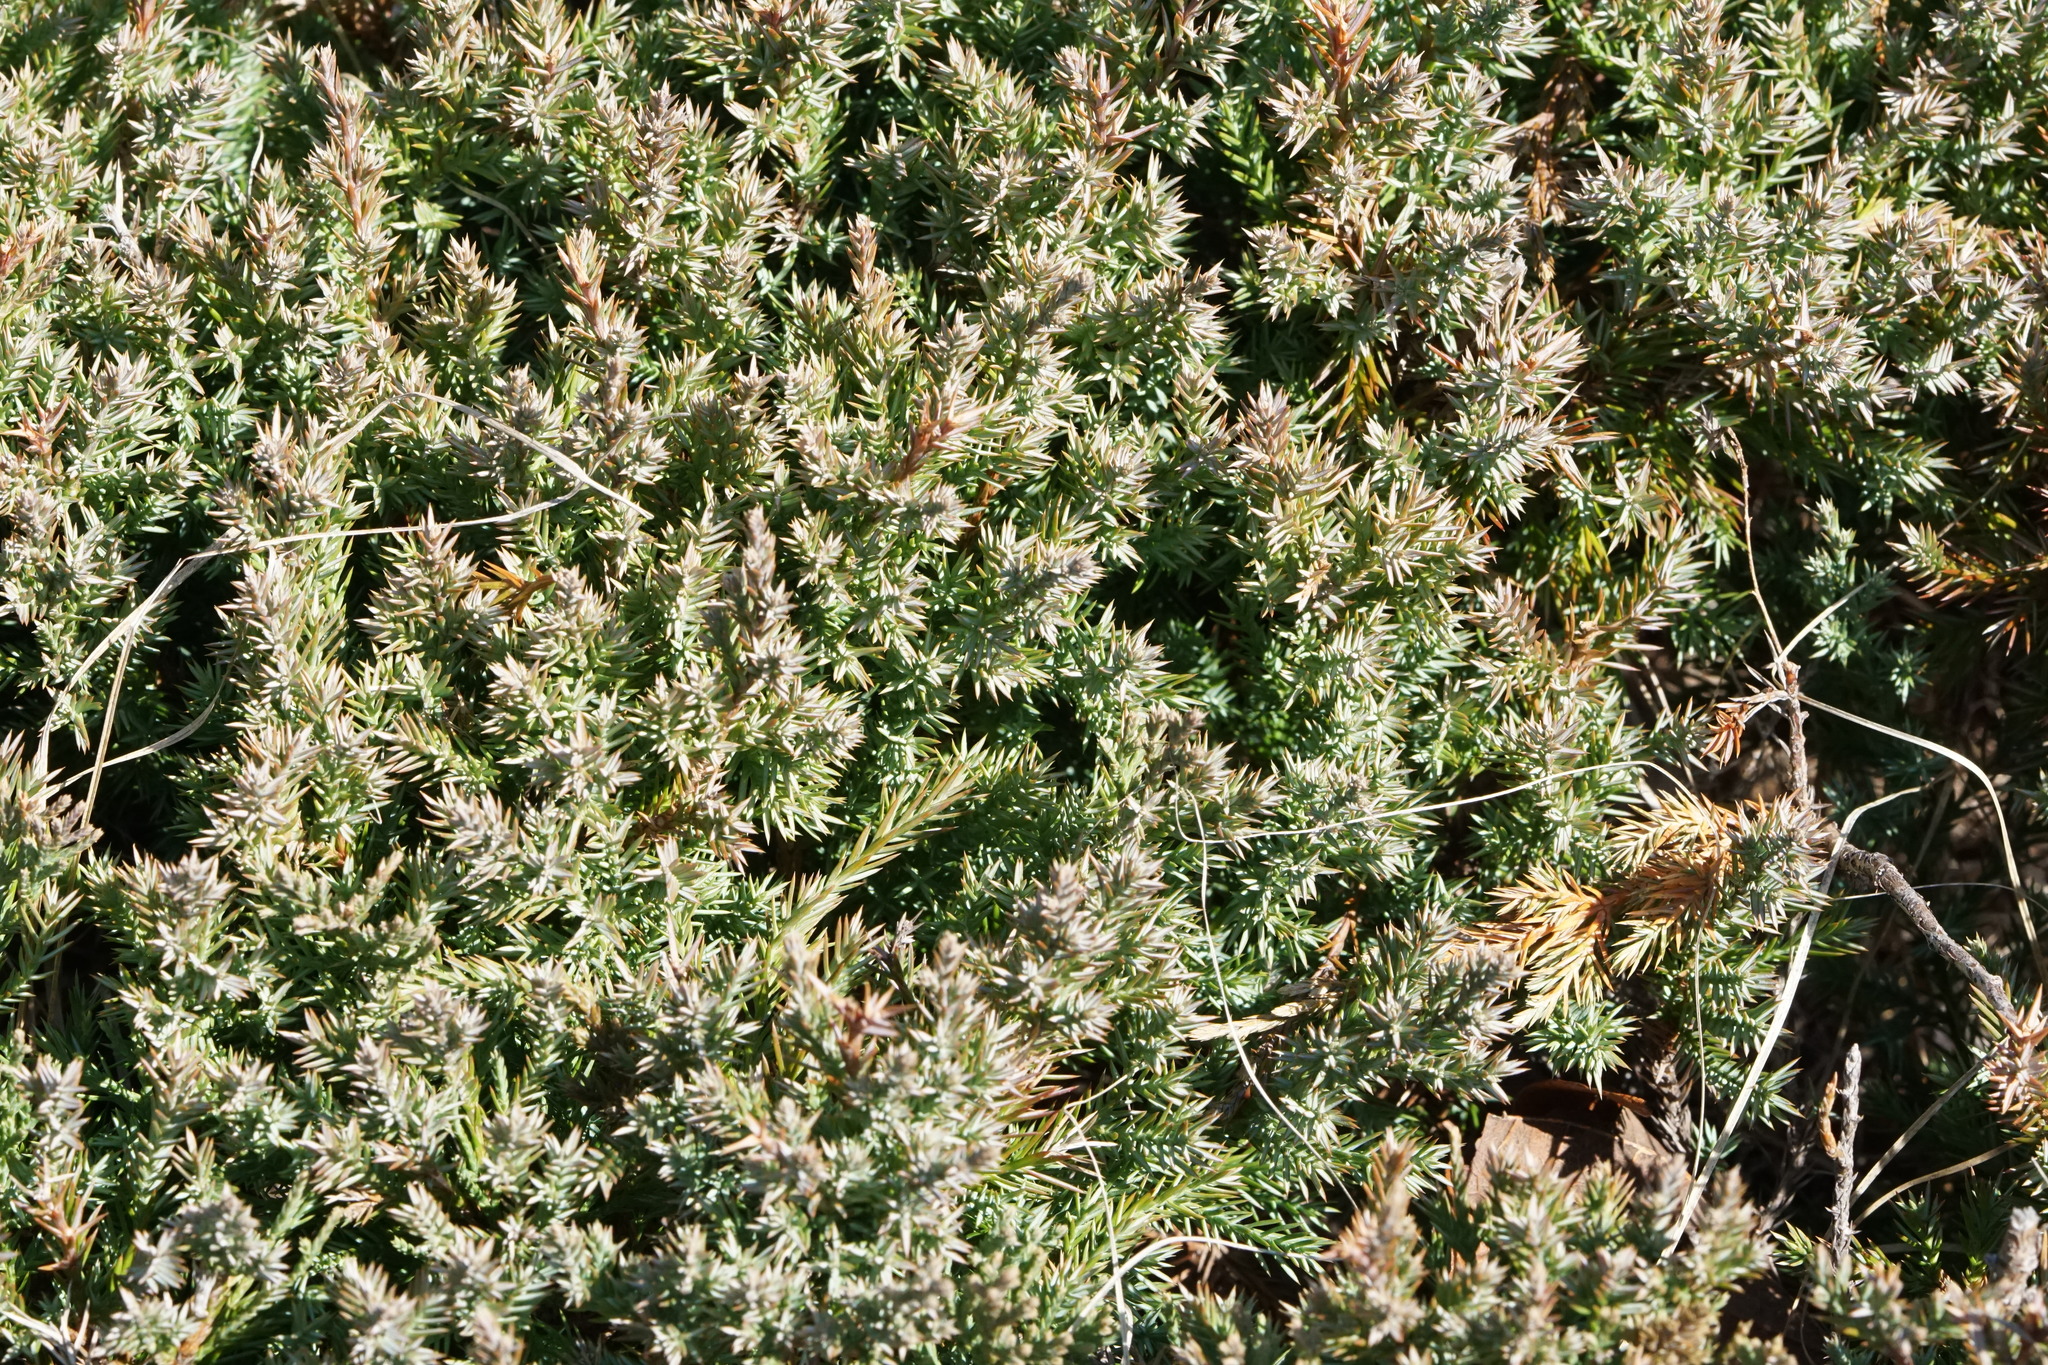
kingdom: Plantae
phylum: Tracheophyta
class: Pinopsida
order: Pinales
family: Cupressaceae
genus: Juniperus
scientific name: Juniperus communis
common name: Common juniper
